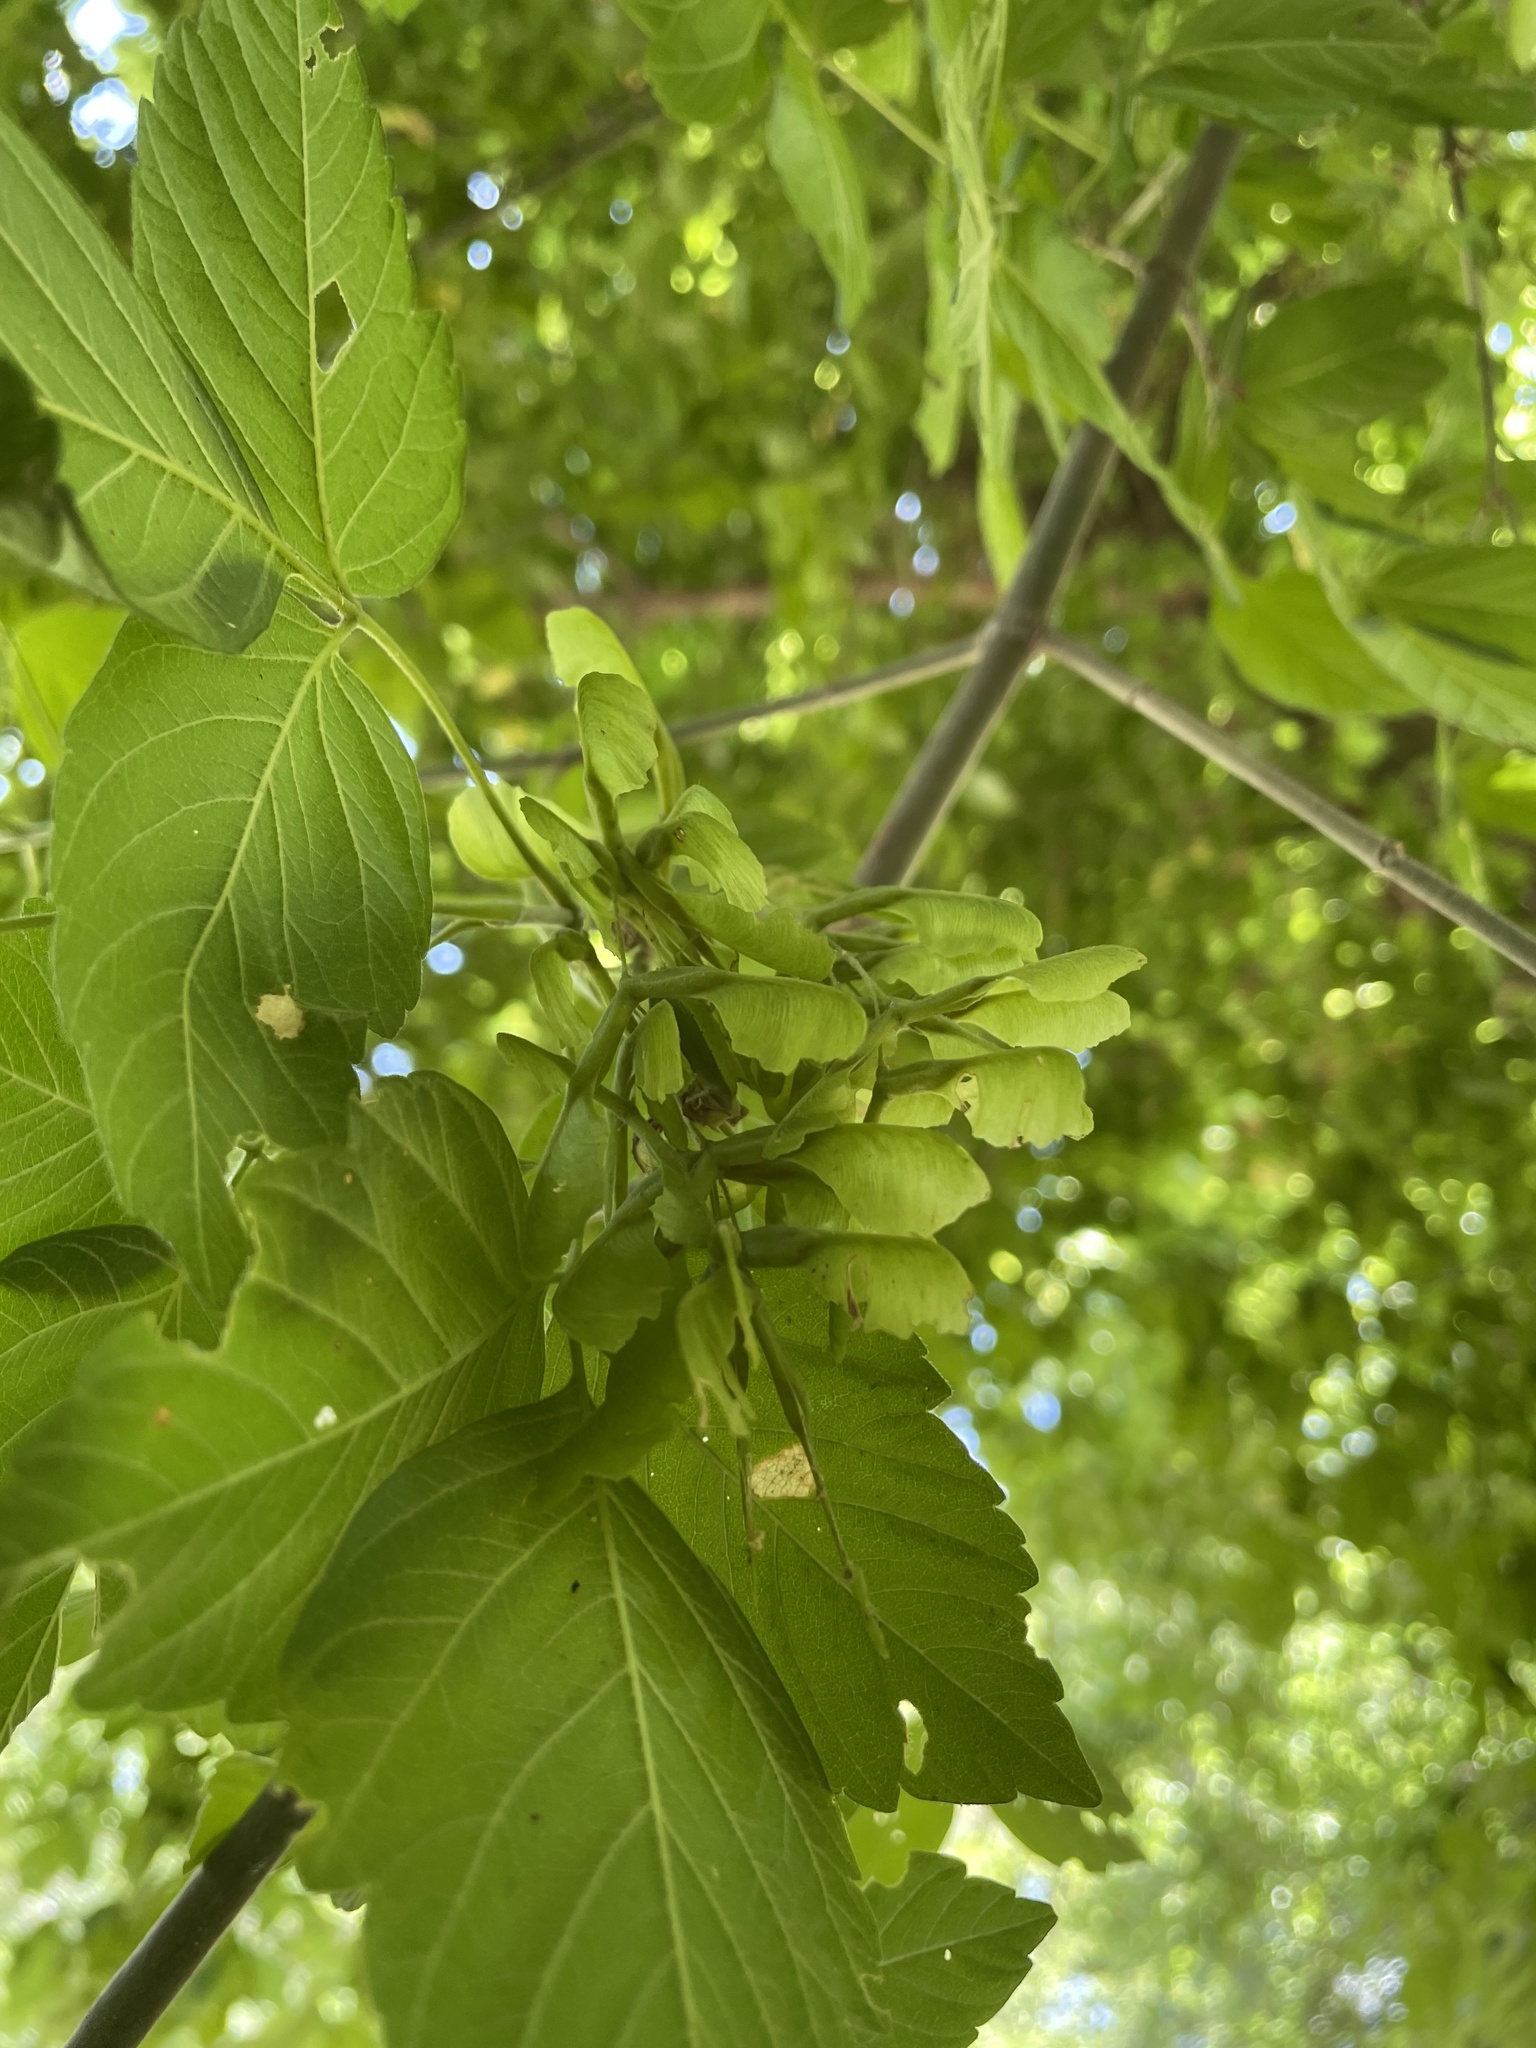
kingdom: Plantae
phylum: Tracheophyta
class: Magnoliopsida
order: Sapindales
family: Sapindaceae
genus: Acer
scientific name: Acer negundo
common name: Ashleaf maple
